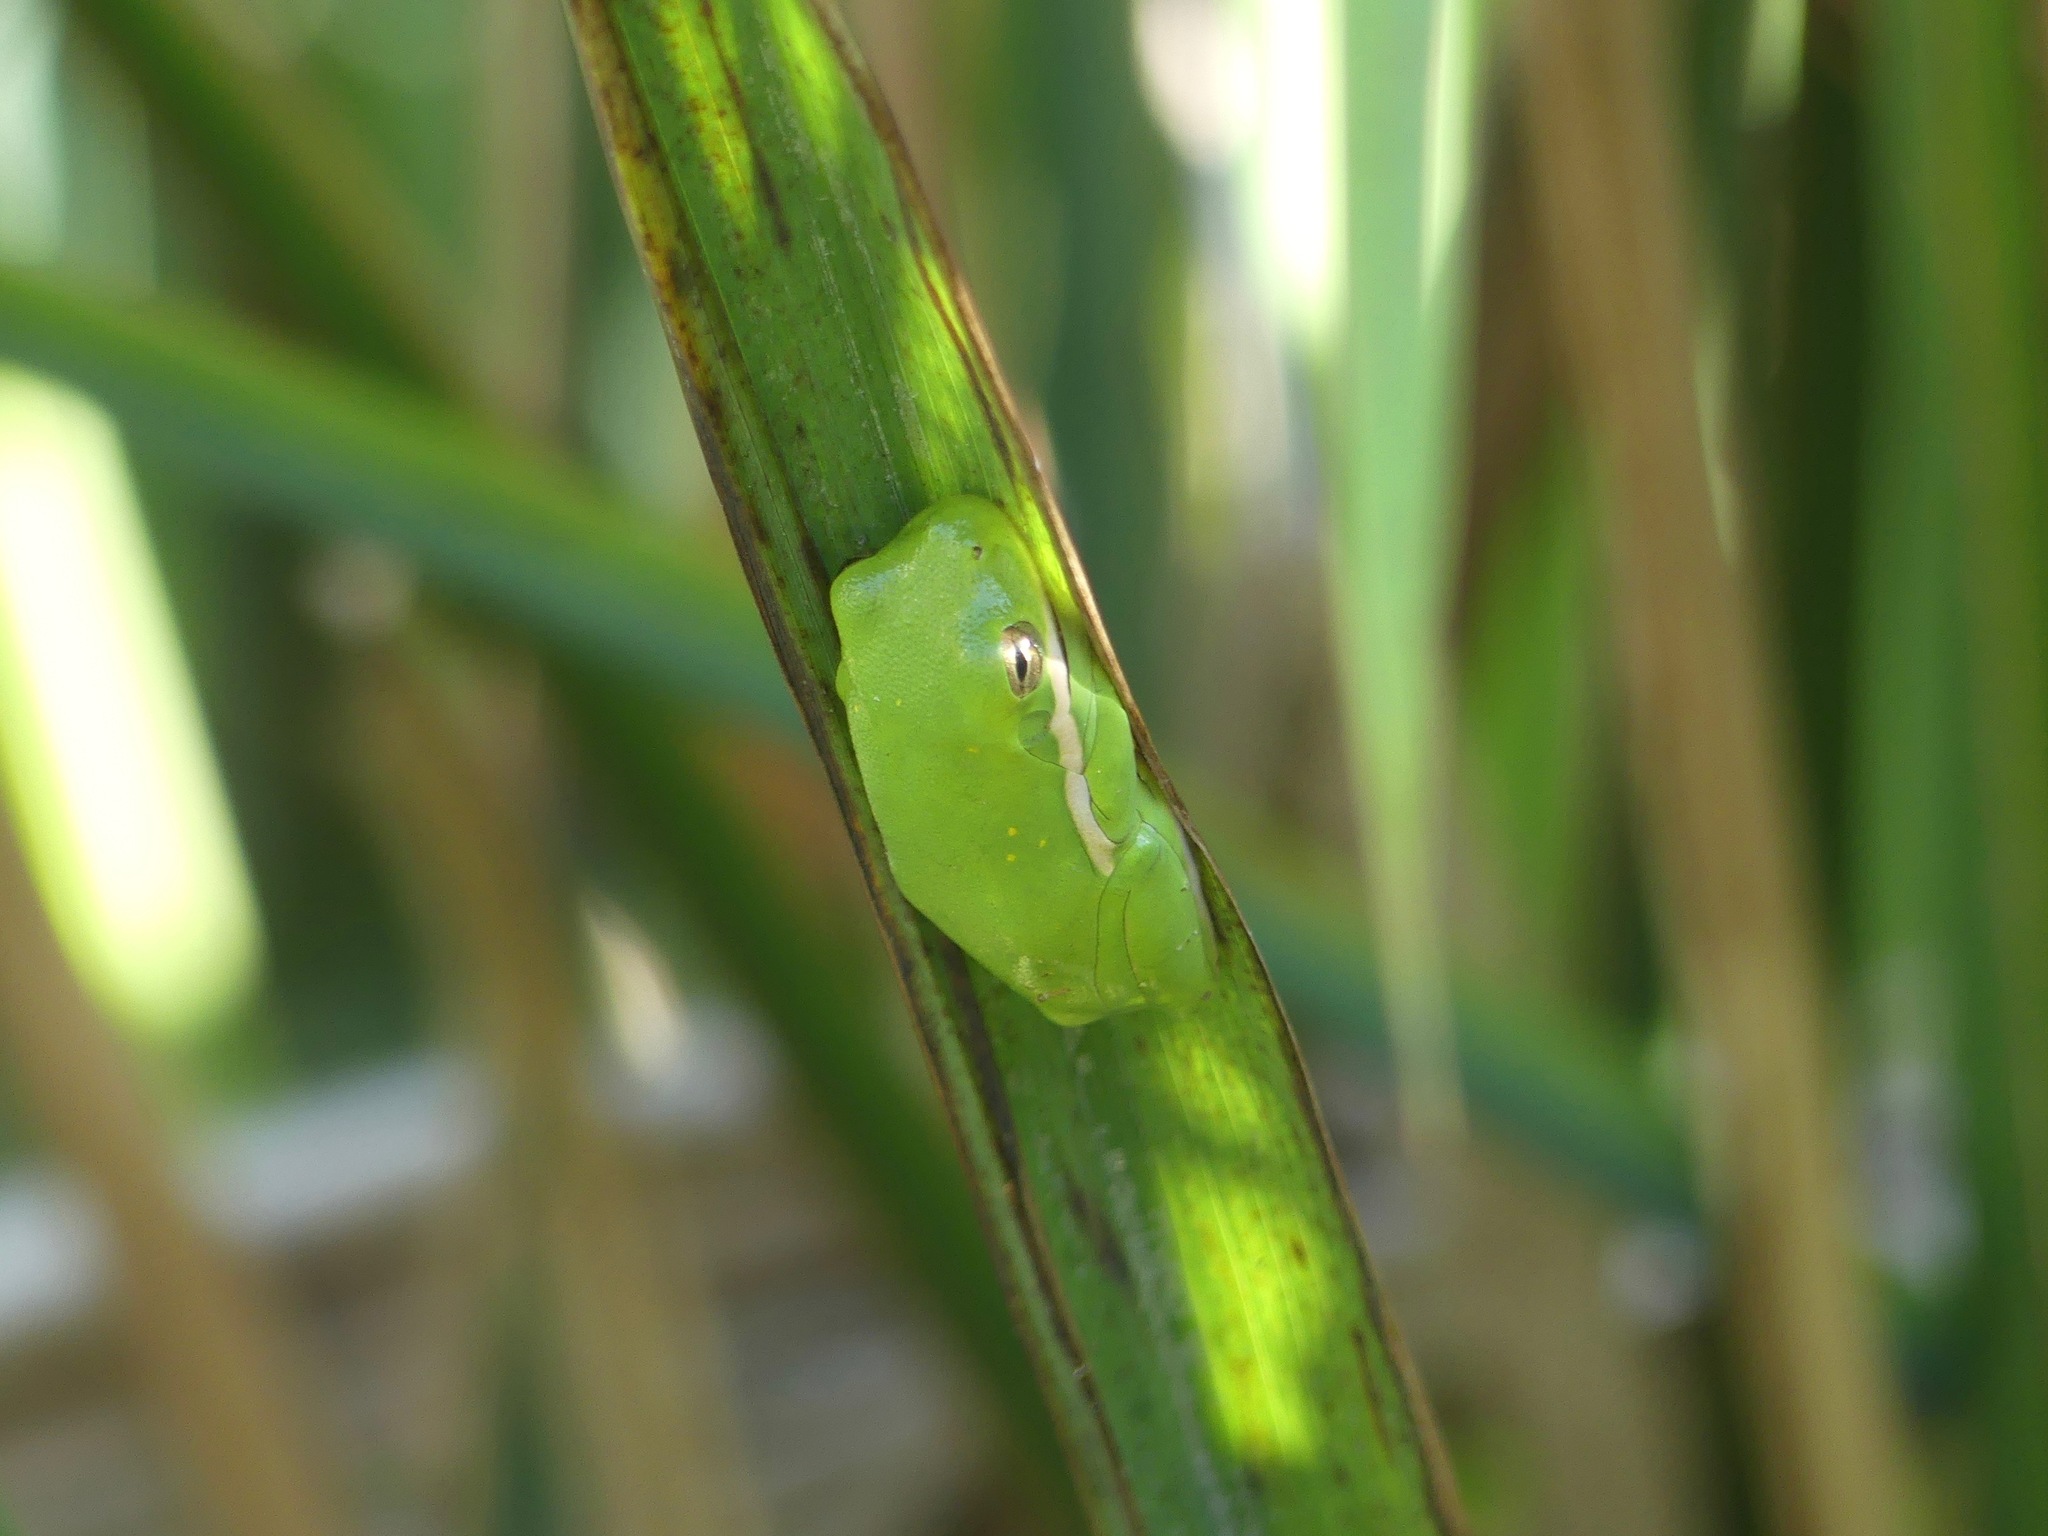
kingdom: Animalia
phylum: Chordata
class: Amphibia
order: Anura
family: Hylidae
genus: Dryophytes
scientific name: Dryophytes cinereus
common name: Green treefrog
